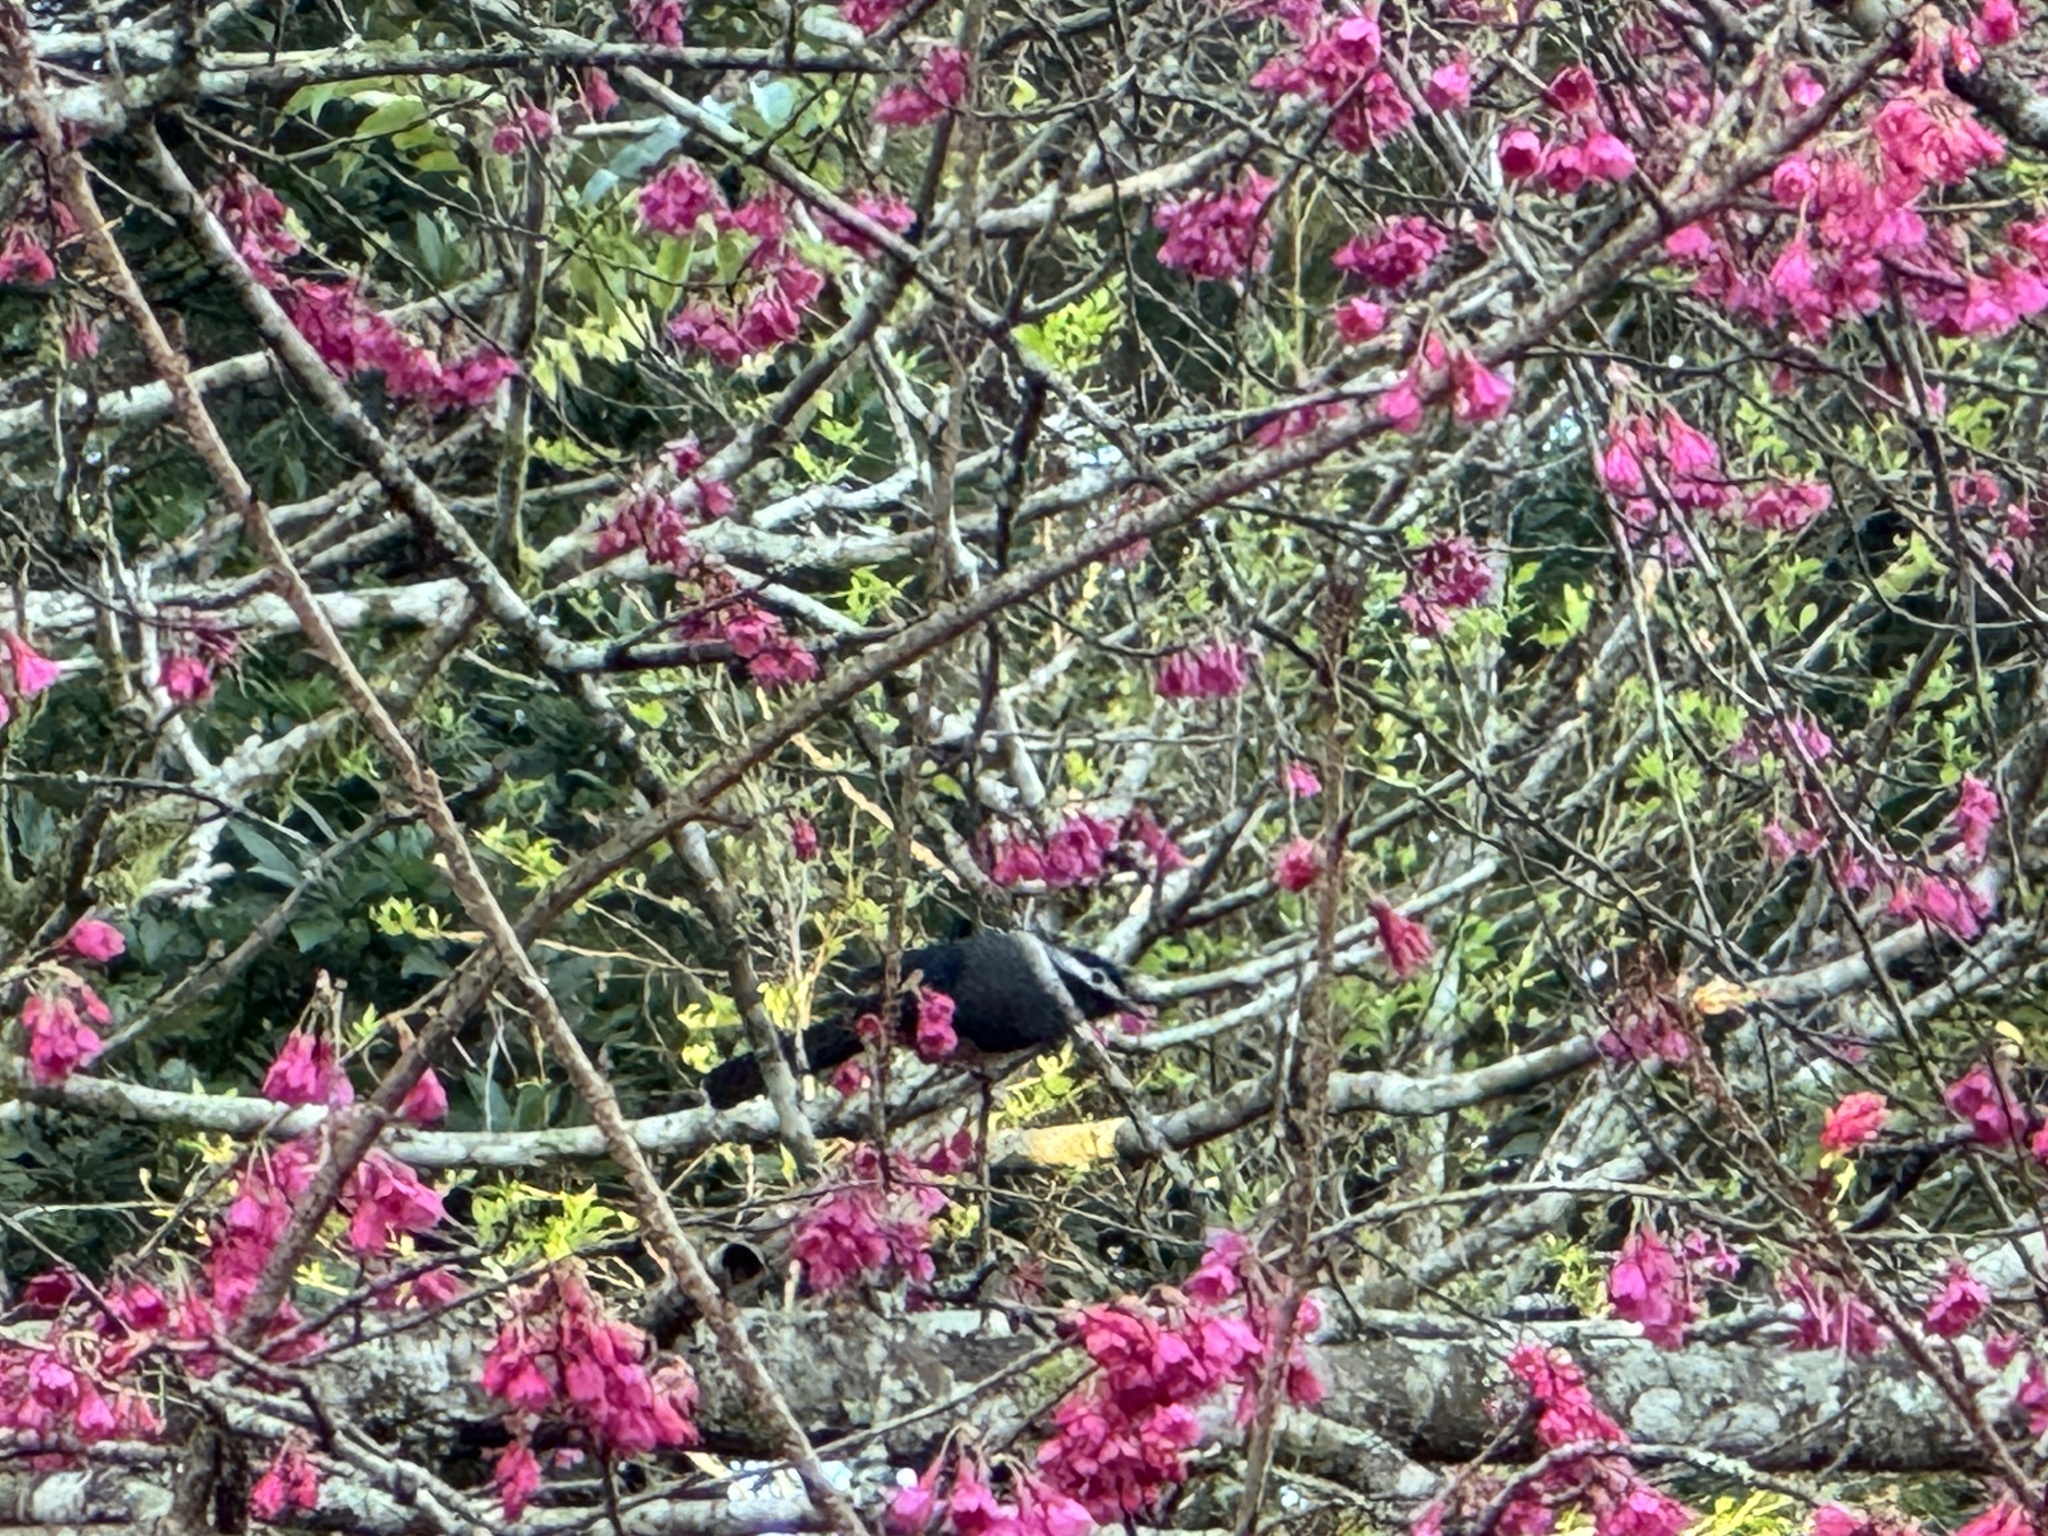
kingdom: Animalia
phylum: Chordata
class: Aves
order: Passeriformes
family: Leiothrichidae
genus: Heterophasia
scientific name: Heterophasia auricularis
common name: White-eared sibia
